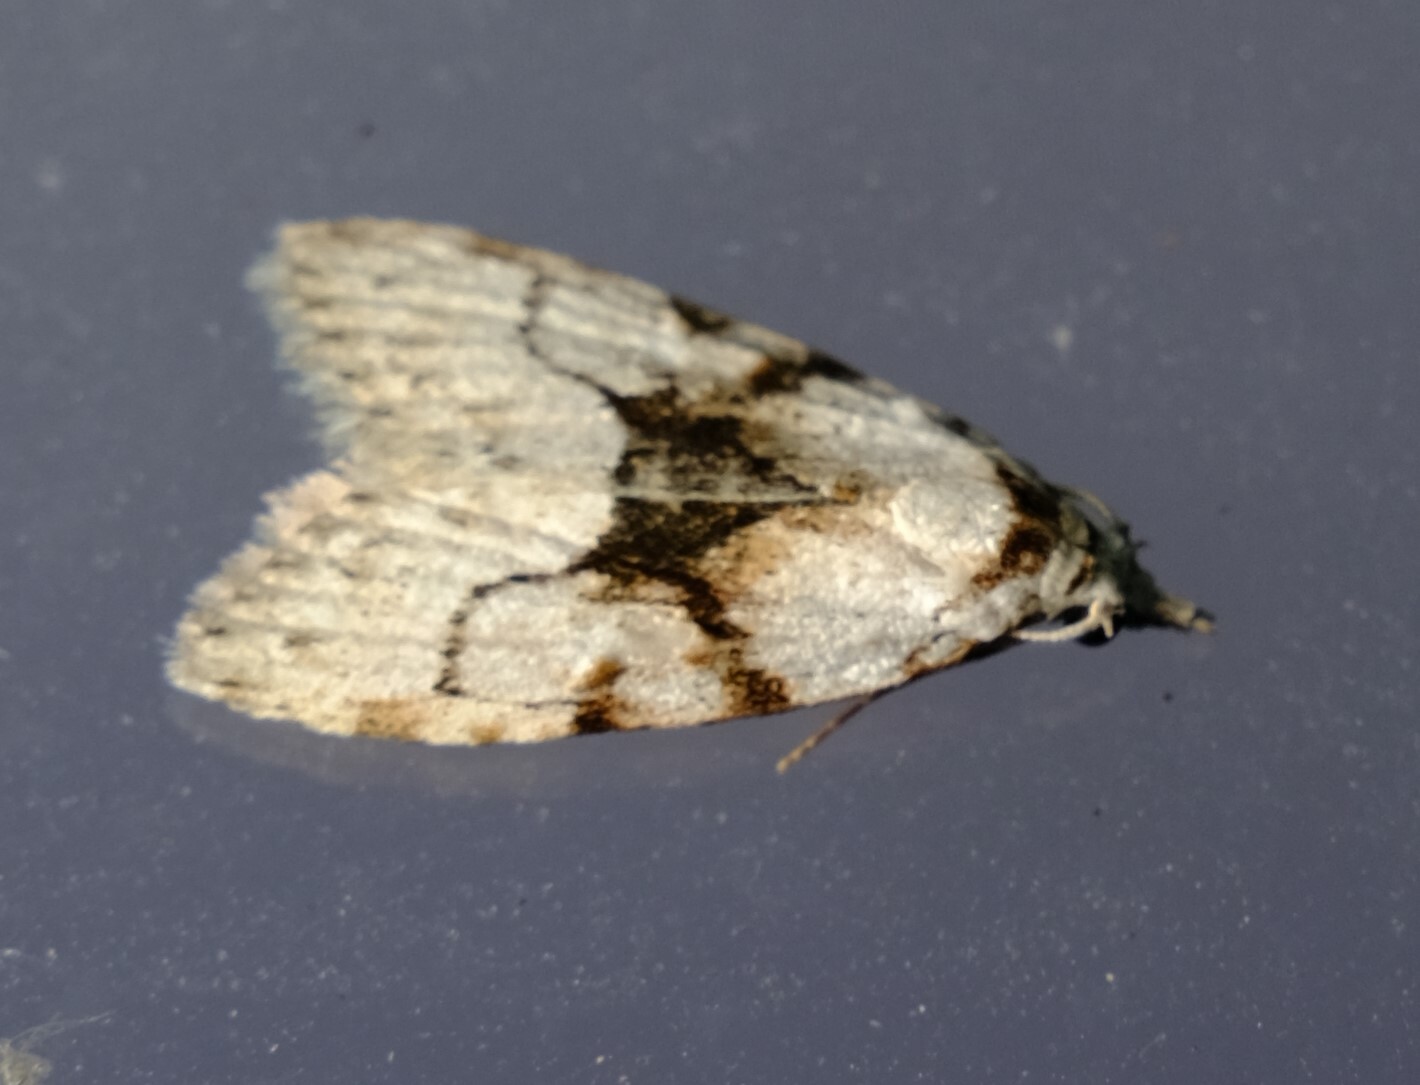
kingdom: Animalia
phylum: Arthropoda
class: Insecta
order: Lepidoptera
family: Nolidae
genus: Nola
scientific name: Nola delograpta
